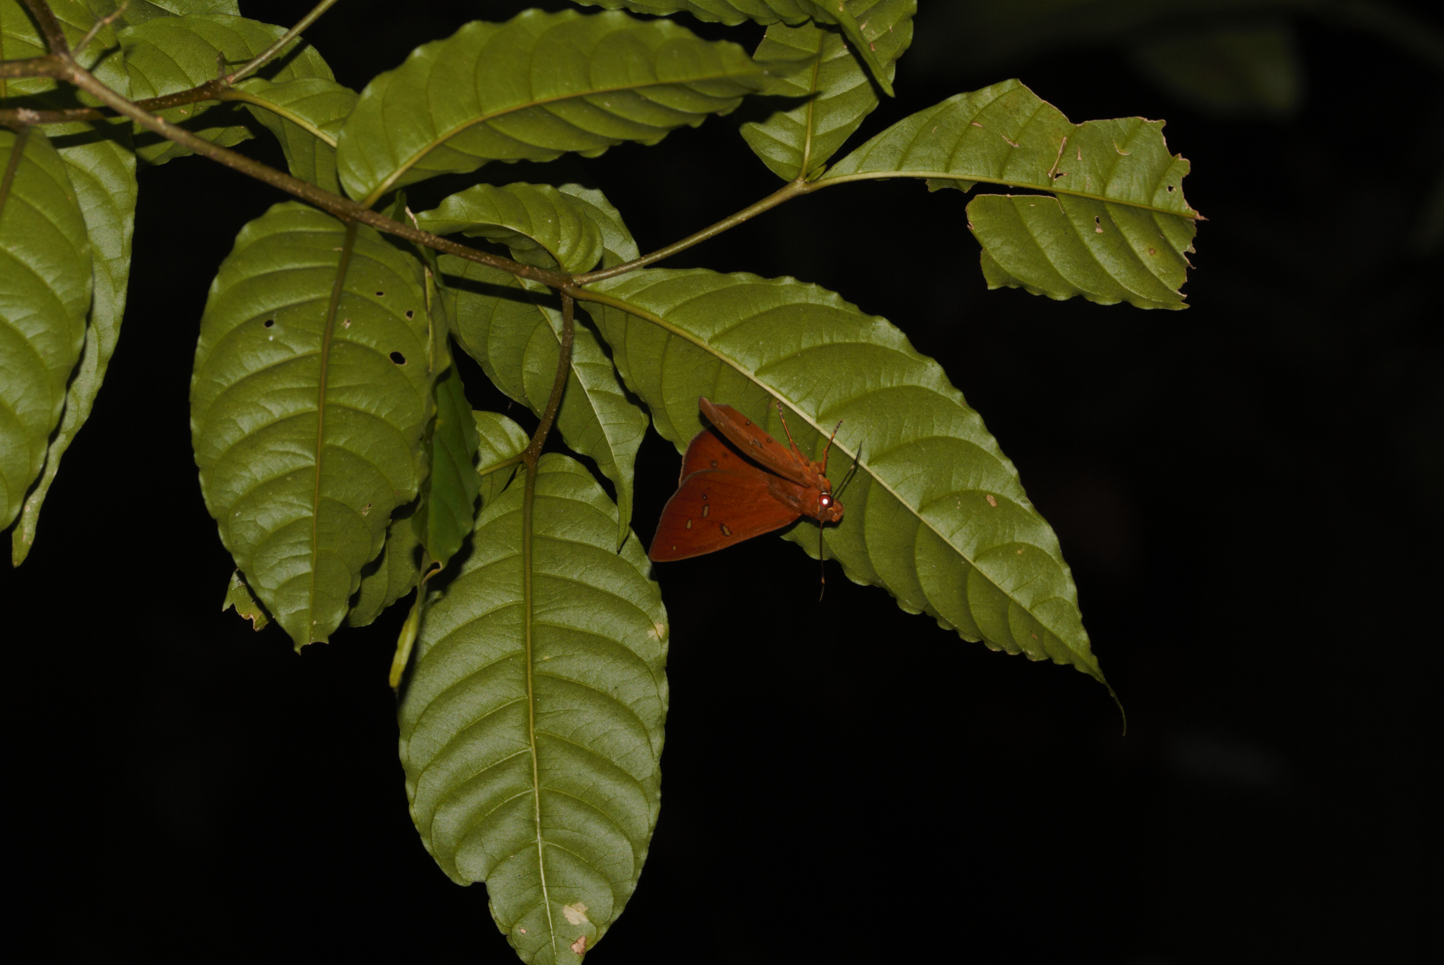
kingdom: Animalia
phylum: Arthropoda
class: Insecta
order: Lepidoptera
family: Hesperiidae
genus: Salatis
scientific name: Salatis salatis
